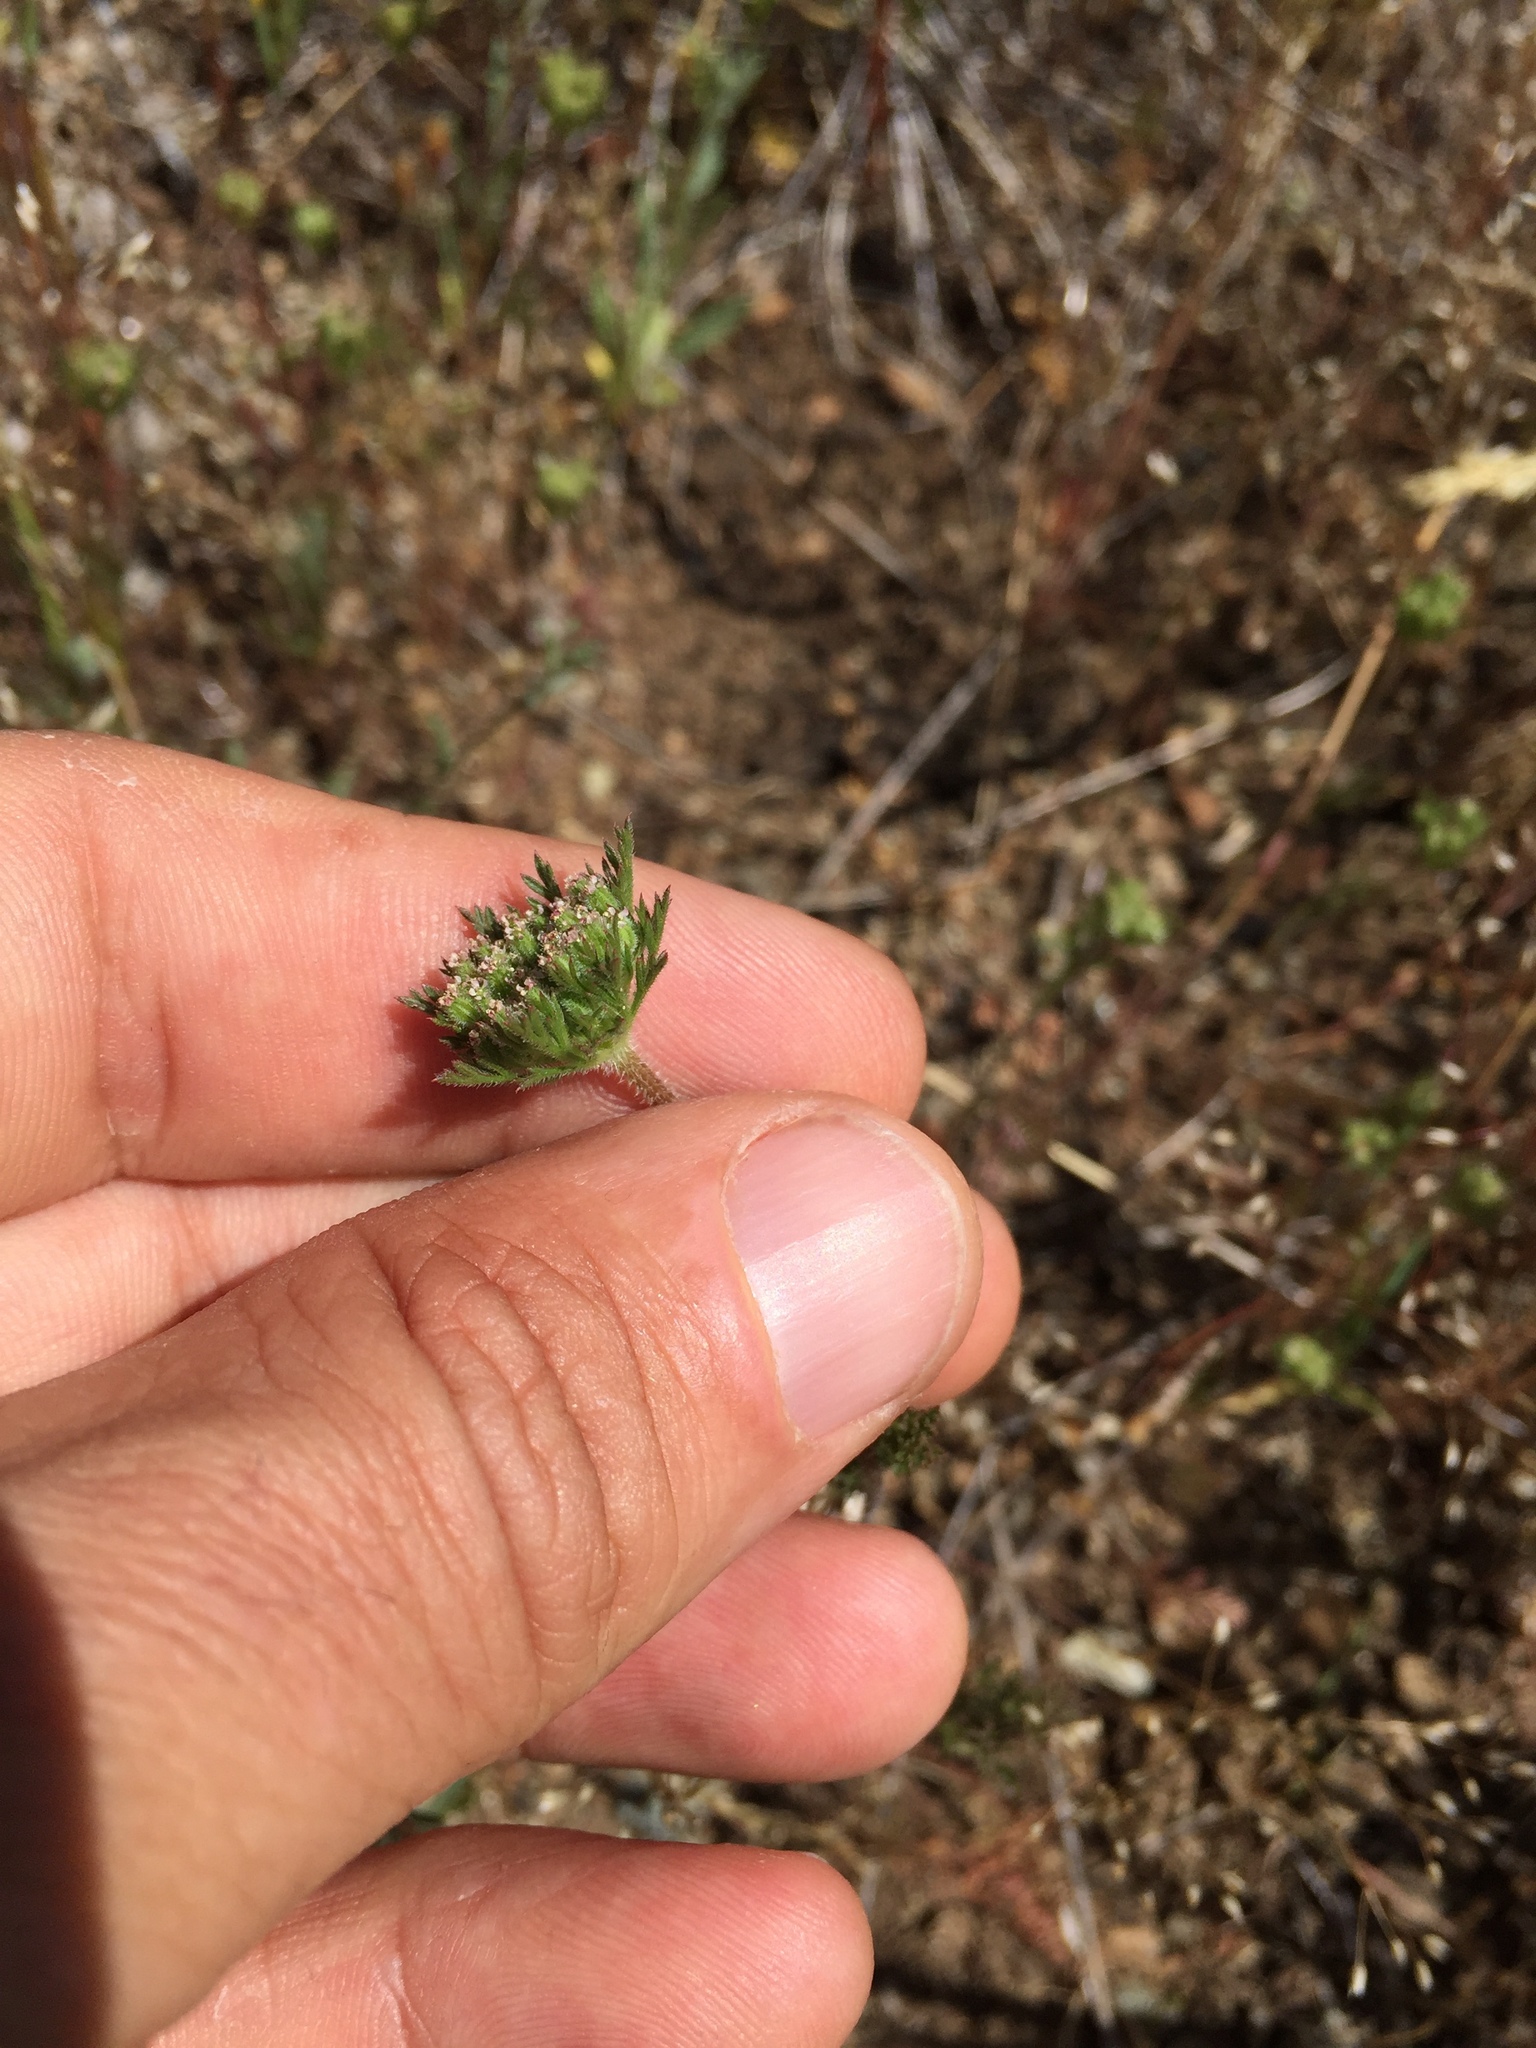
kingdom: Plantae
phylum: Tracheophyta
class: Magnoliopsida
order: Apiales
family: Apiaceae
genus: Daucus
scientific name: Daucus pusillus
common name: Southwest wild carrot
